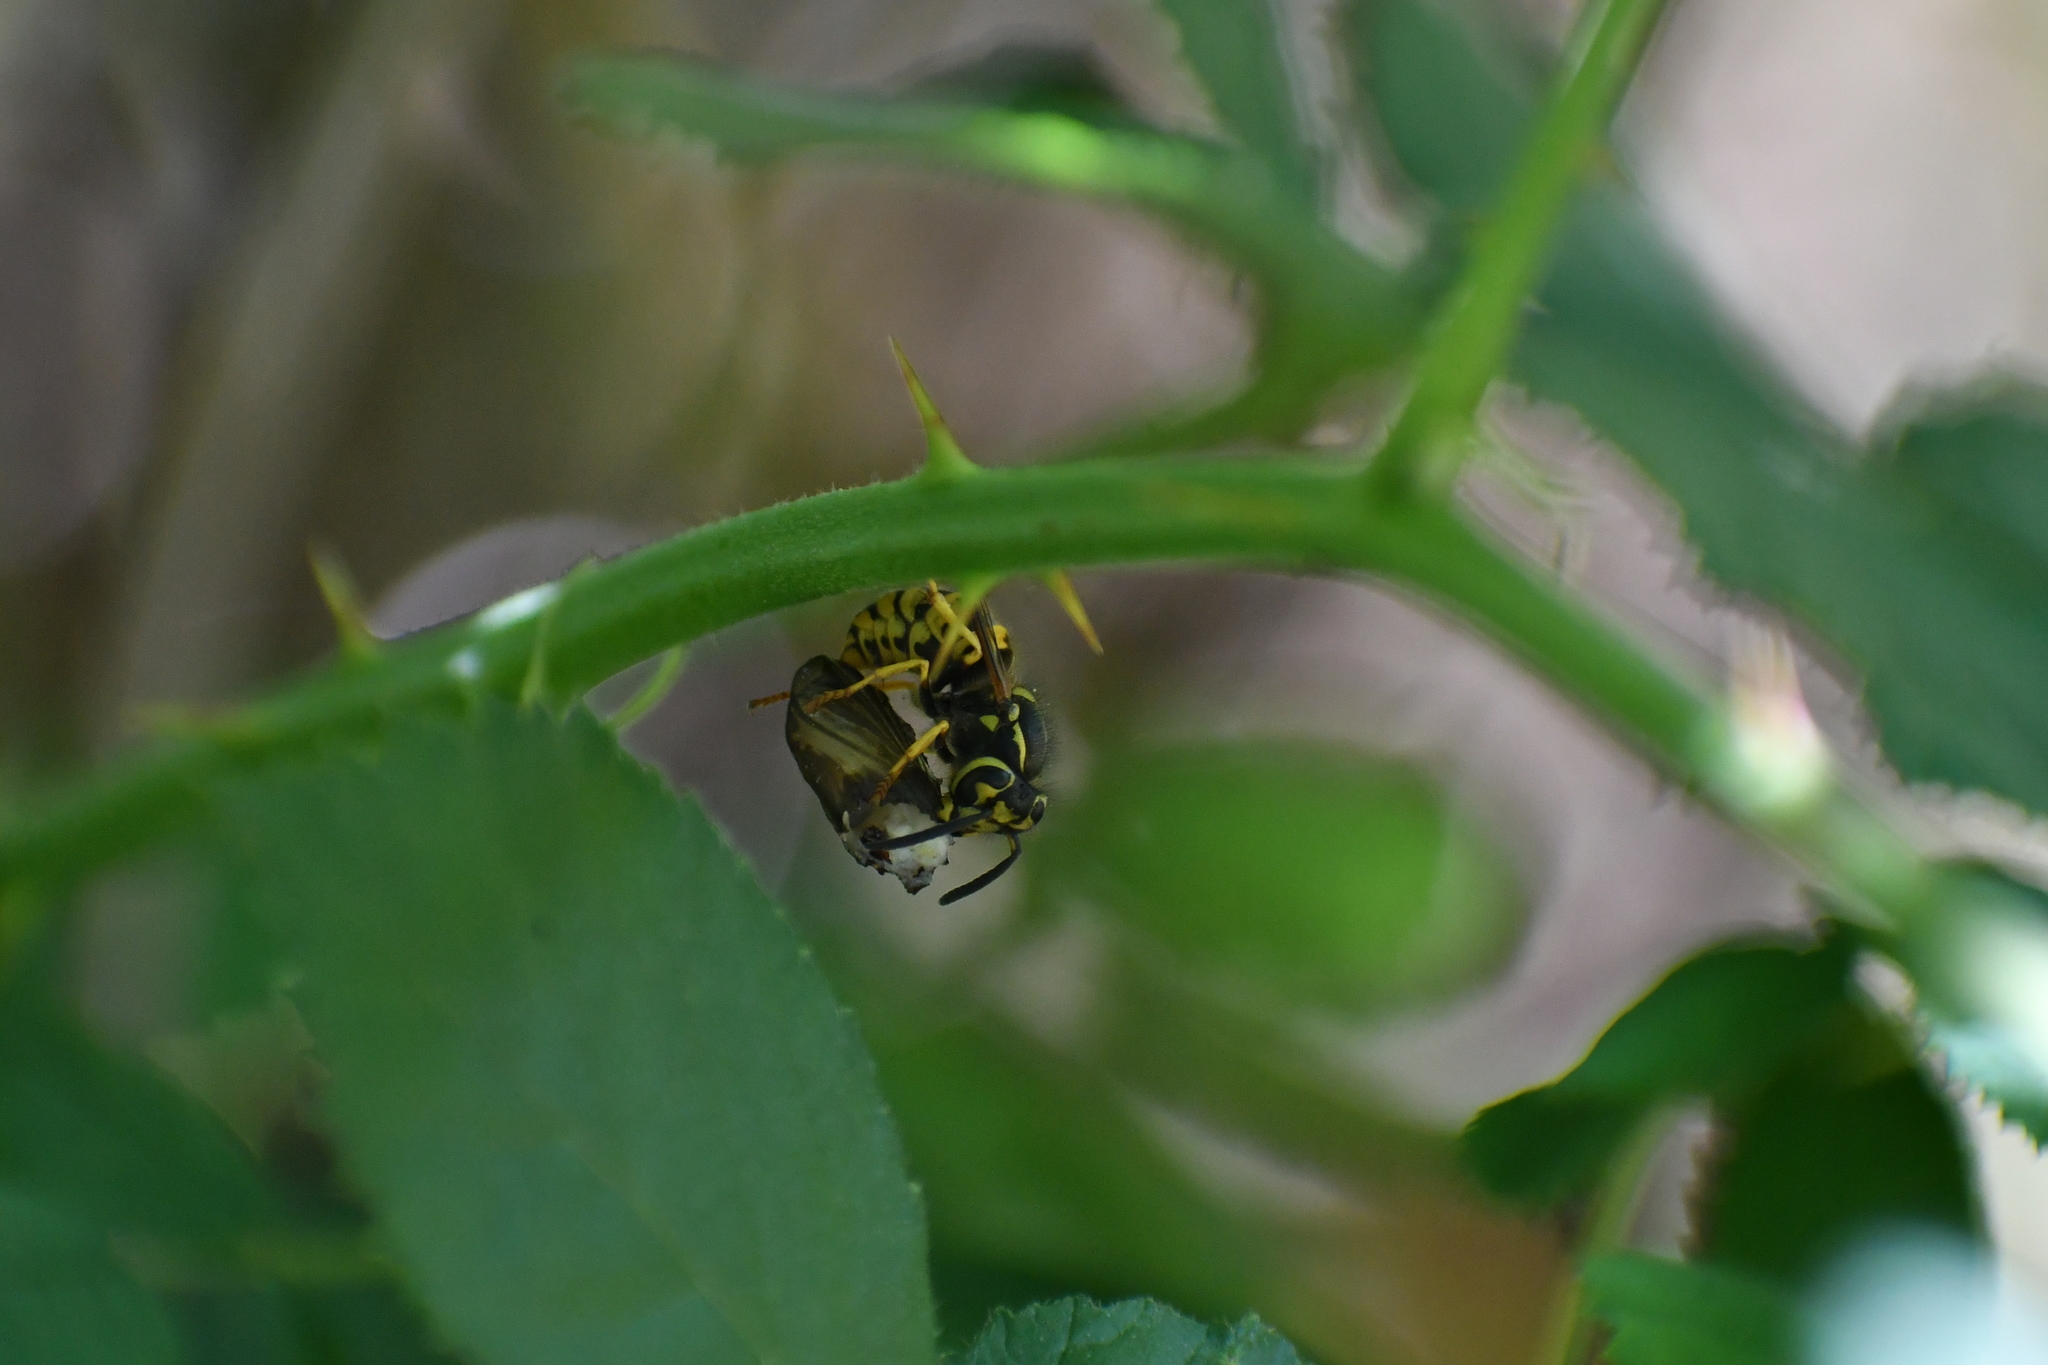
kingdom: Animalia
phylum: Arthropoda
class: Insecta
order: Hymenoptera
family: Vespidae
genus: Vespula
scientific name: Vespula pensylvanica
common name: Western yellowjacket
